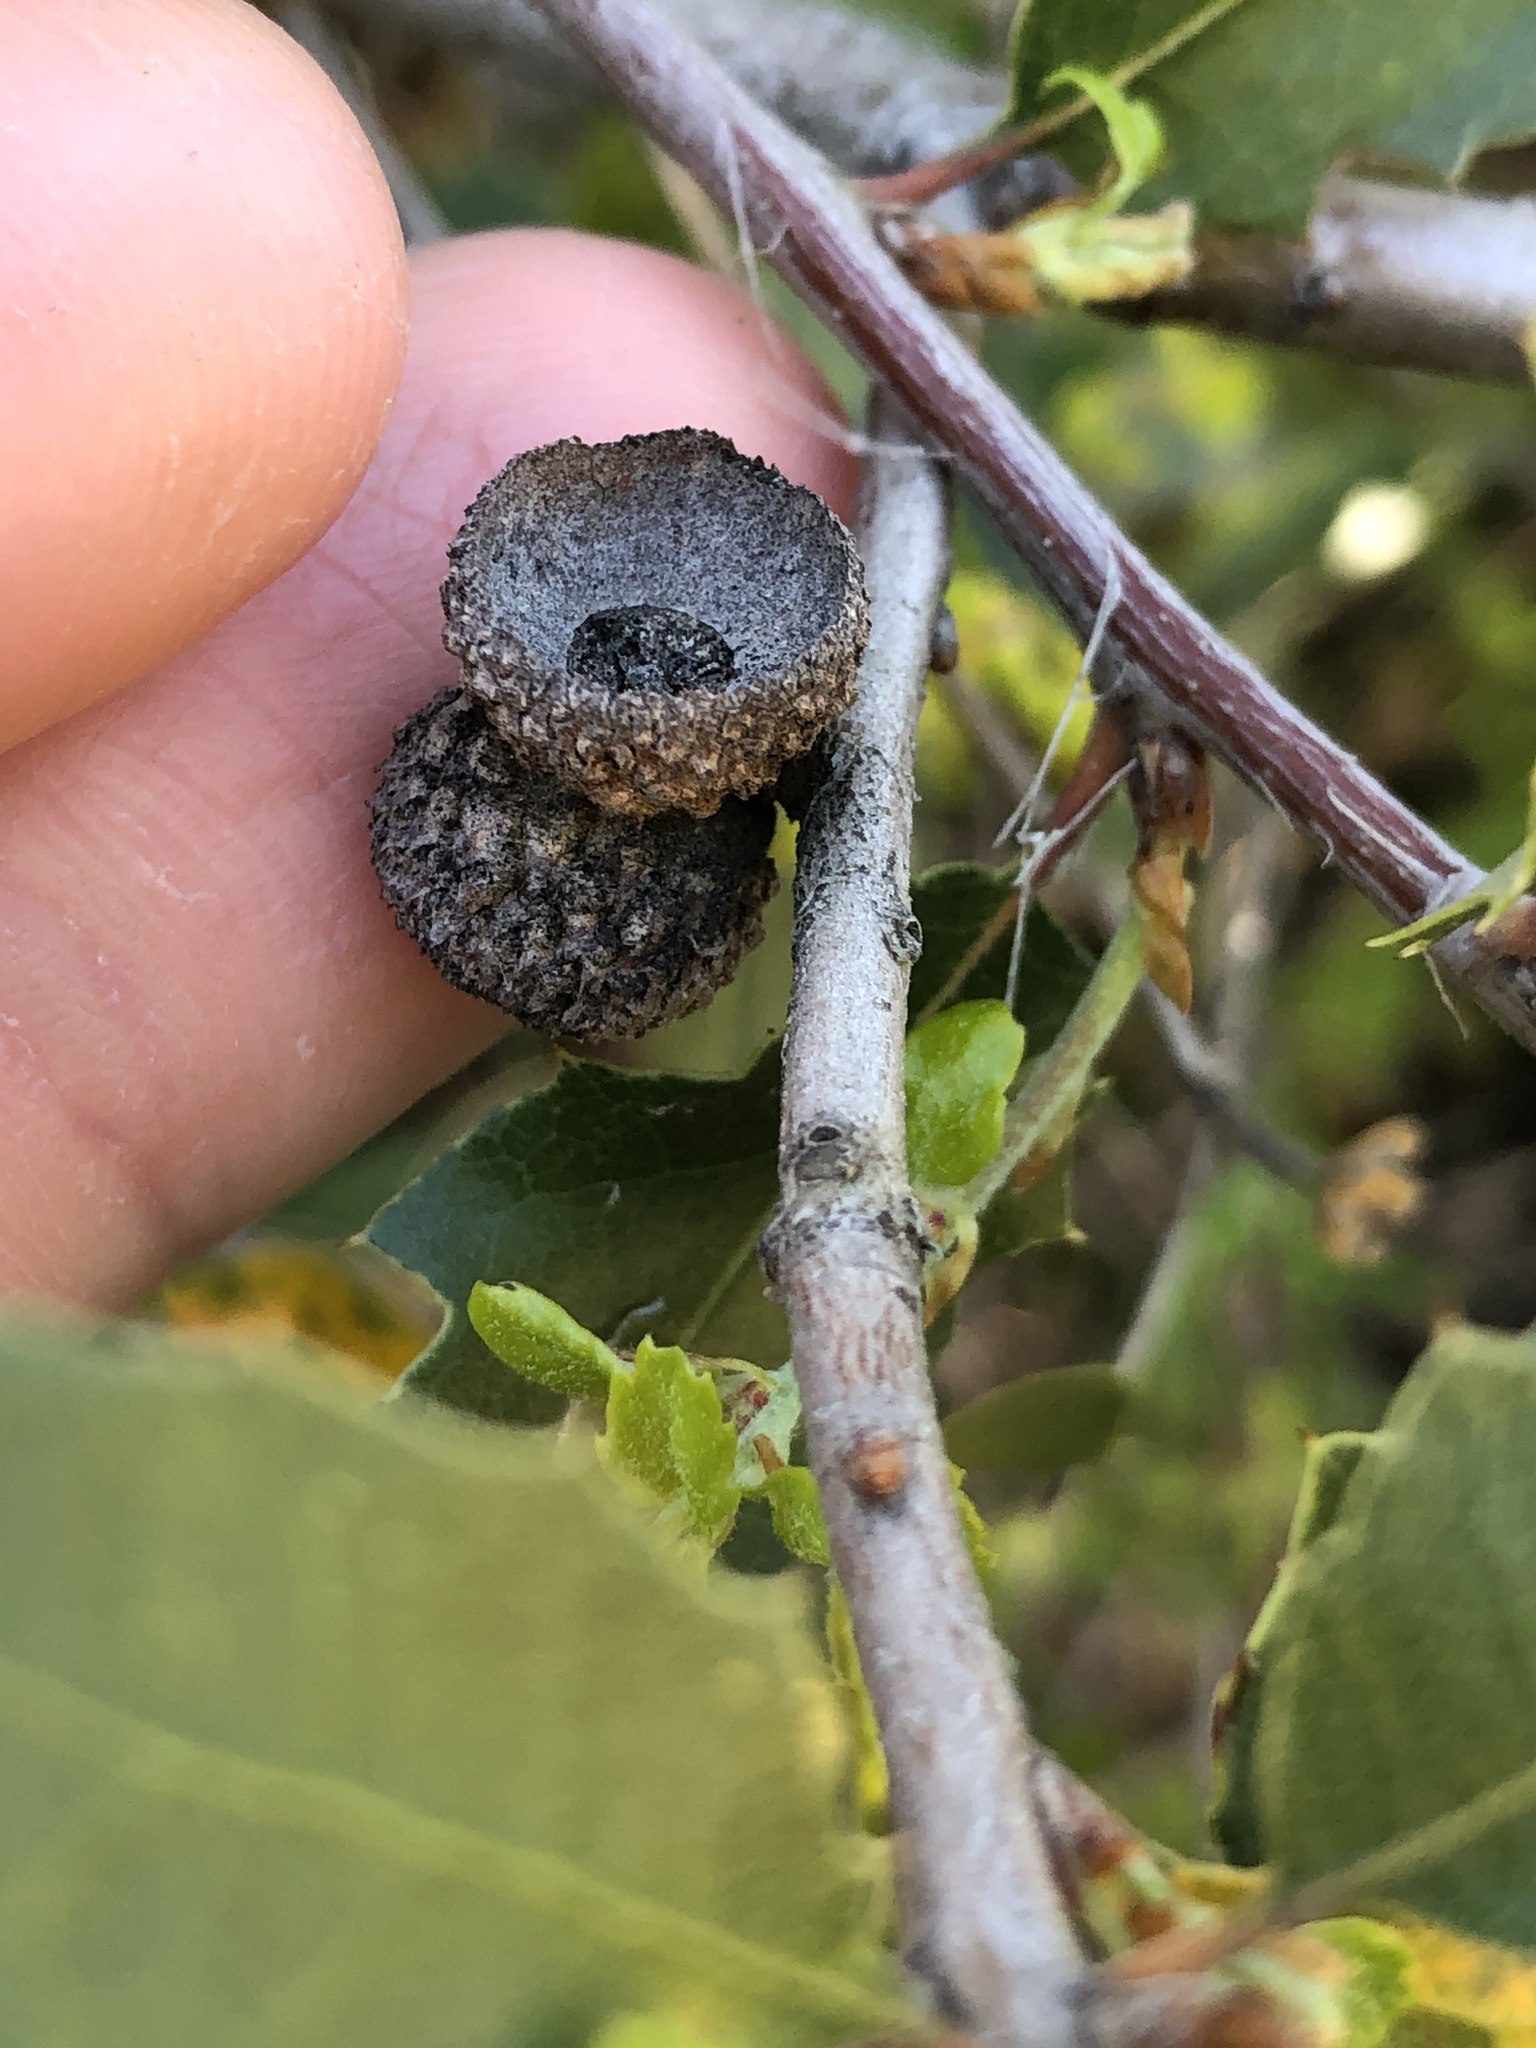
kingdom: Plantae
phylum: Tracheophyta
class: Magnoliopsida
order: Fagales
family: Fagaceae
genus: Quercus
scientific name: Quercus wislizeni
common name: Interior live oak
